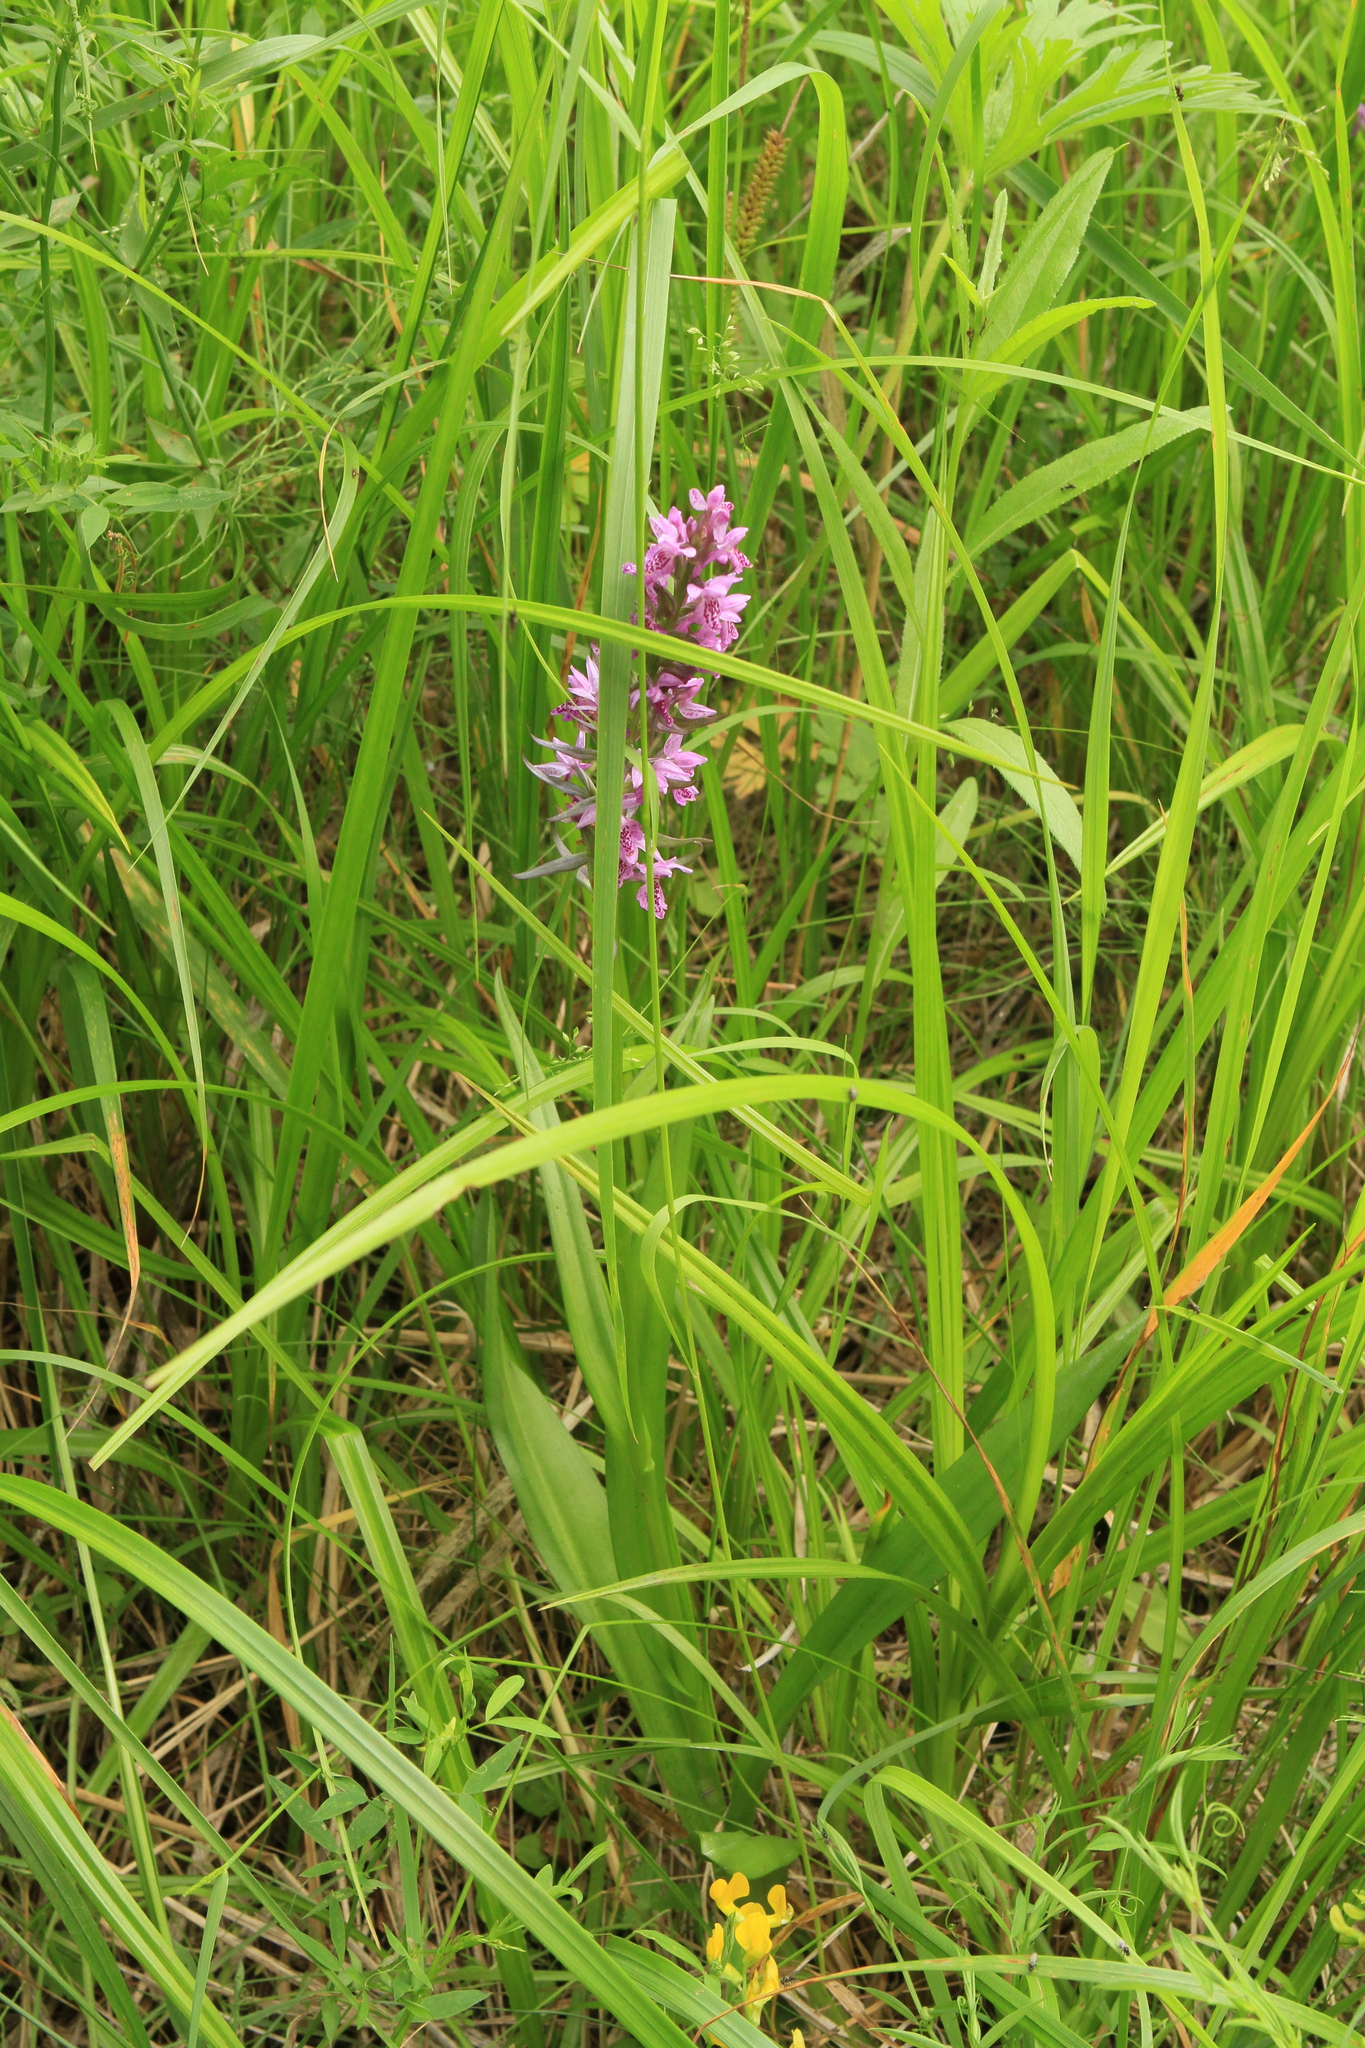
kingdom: Plantae
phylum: Tracheophyta
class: Liliopsida
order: Asparagales
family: Orchidaceae
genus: Dactylorhiza
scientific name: Dactylorhiza sibirica
